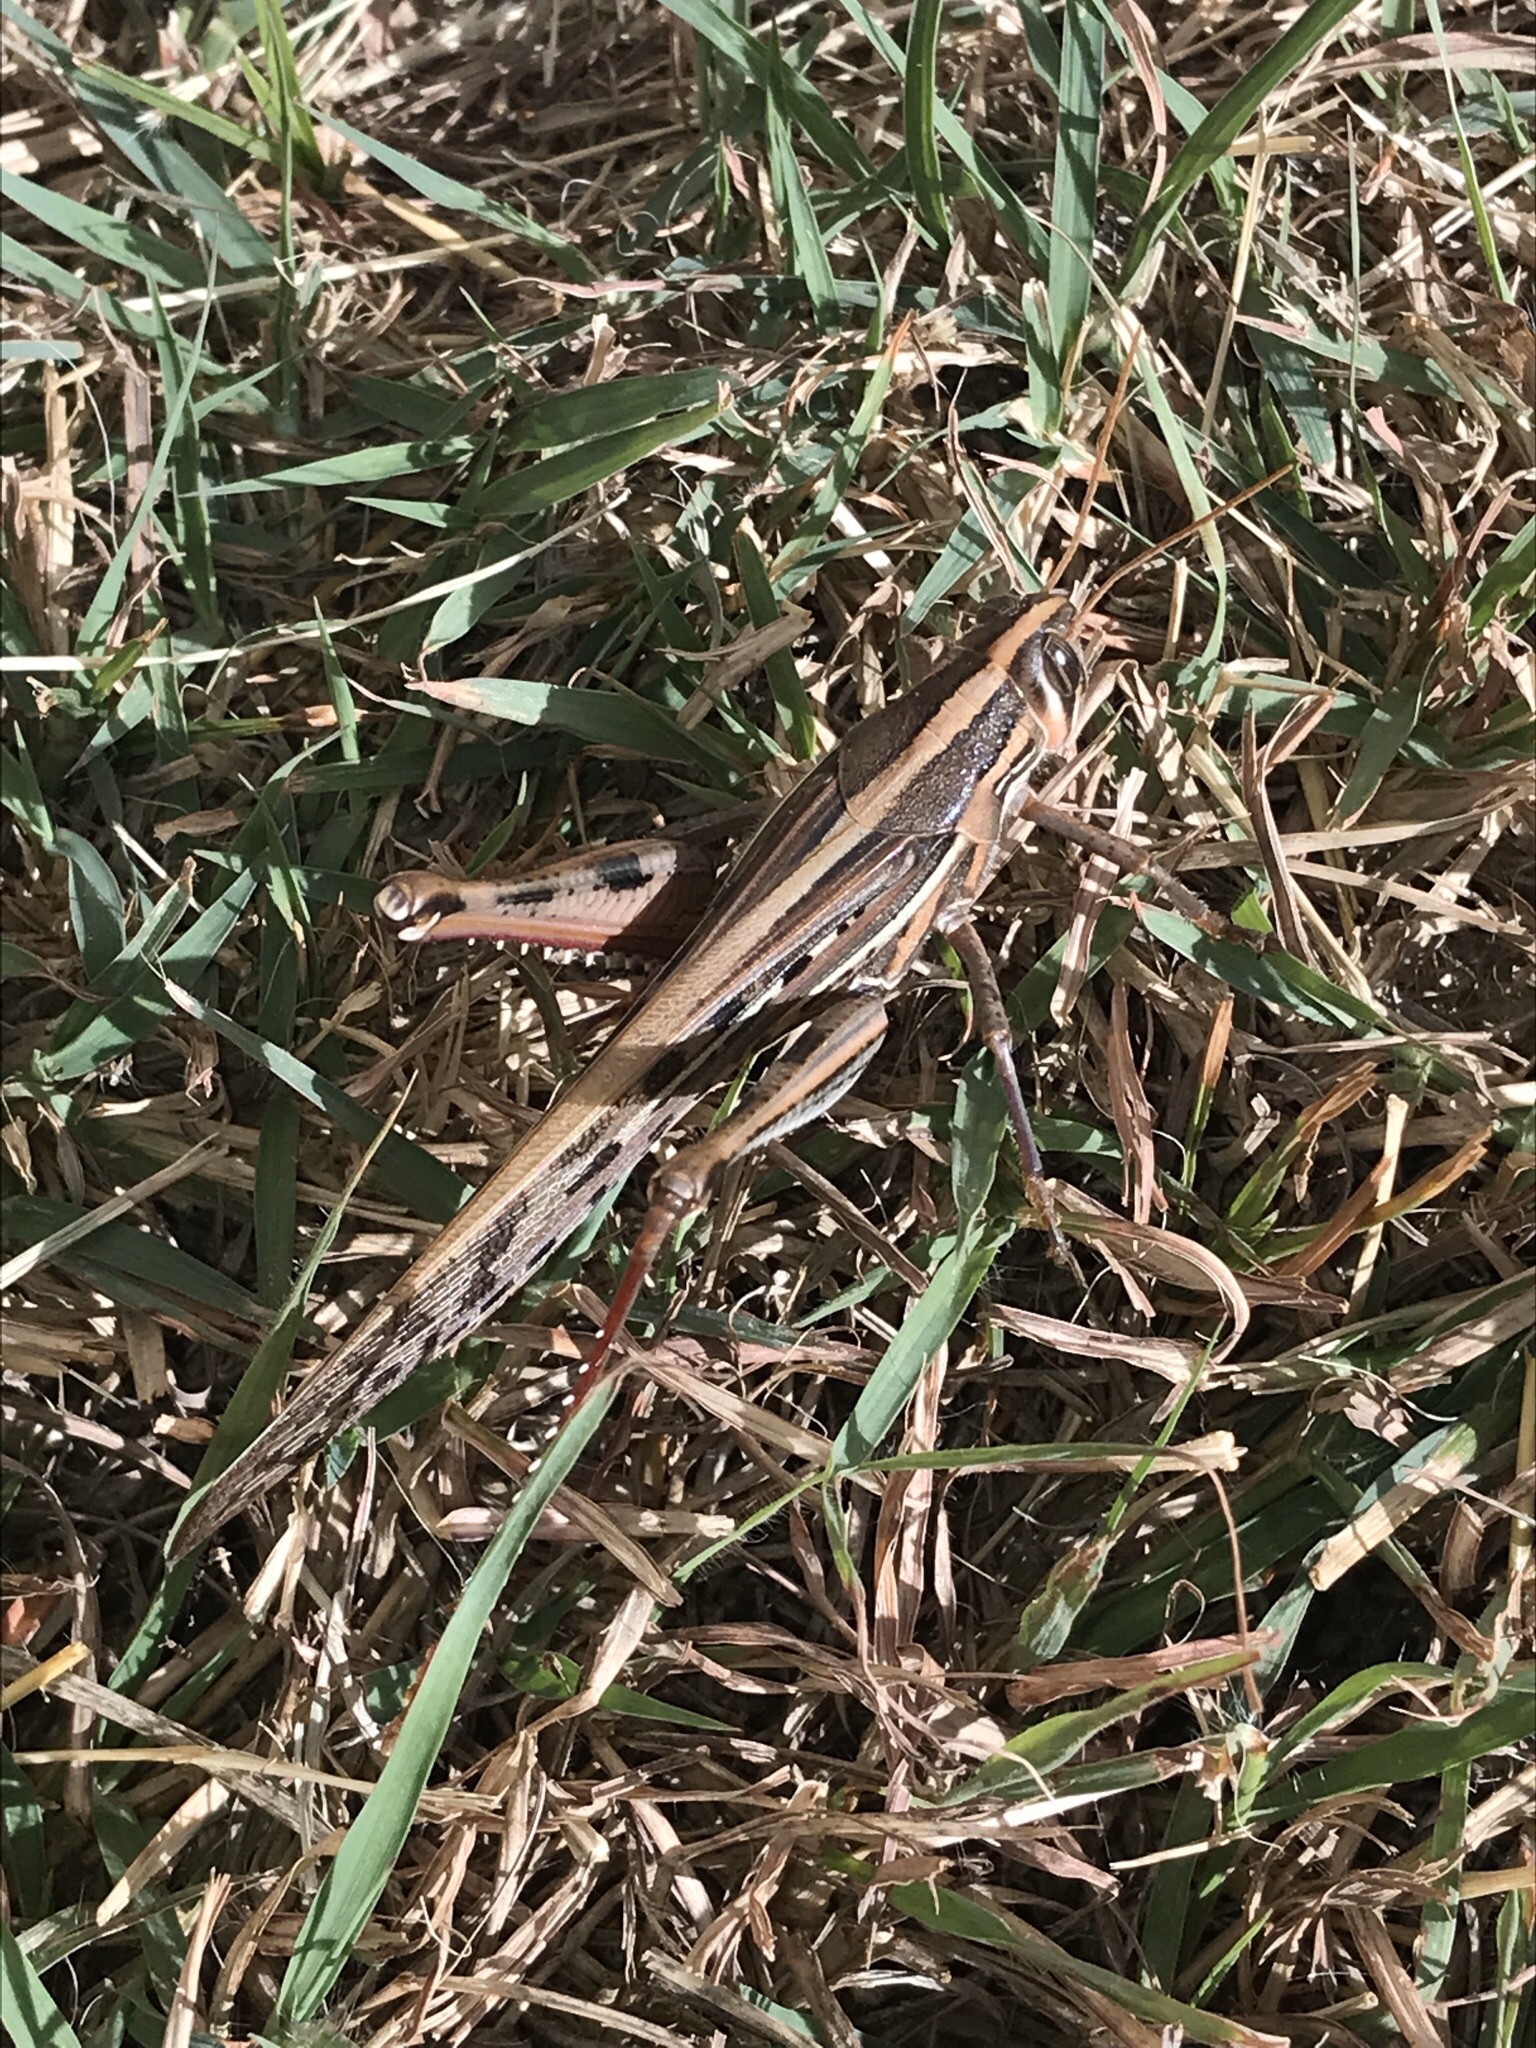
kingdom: Animalia
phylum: Arthropoda
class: Insecta
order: Orthoptera
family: Acrididae
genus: Schistocerca
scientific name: Schistocerca americana
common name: American bird locust
